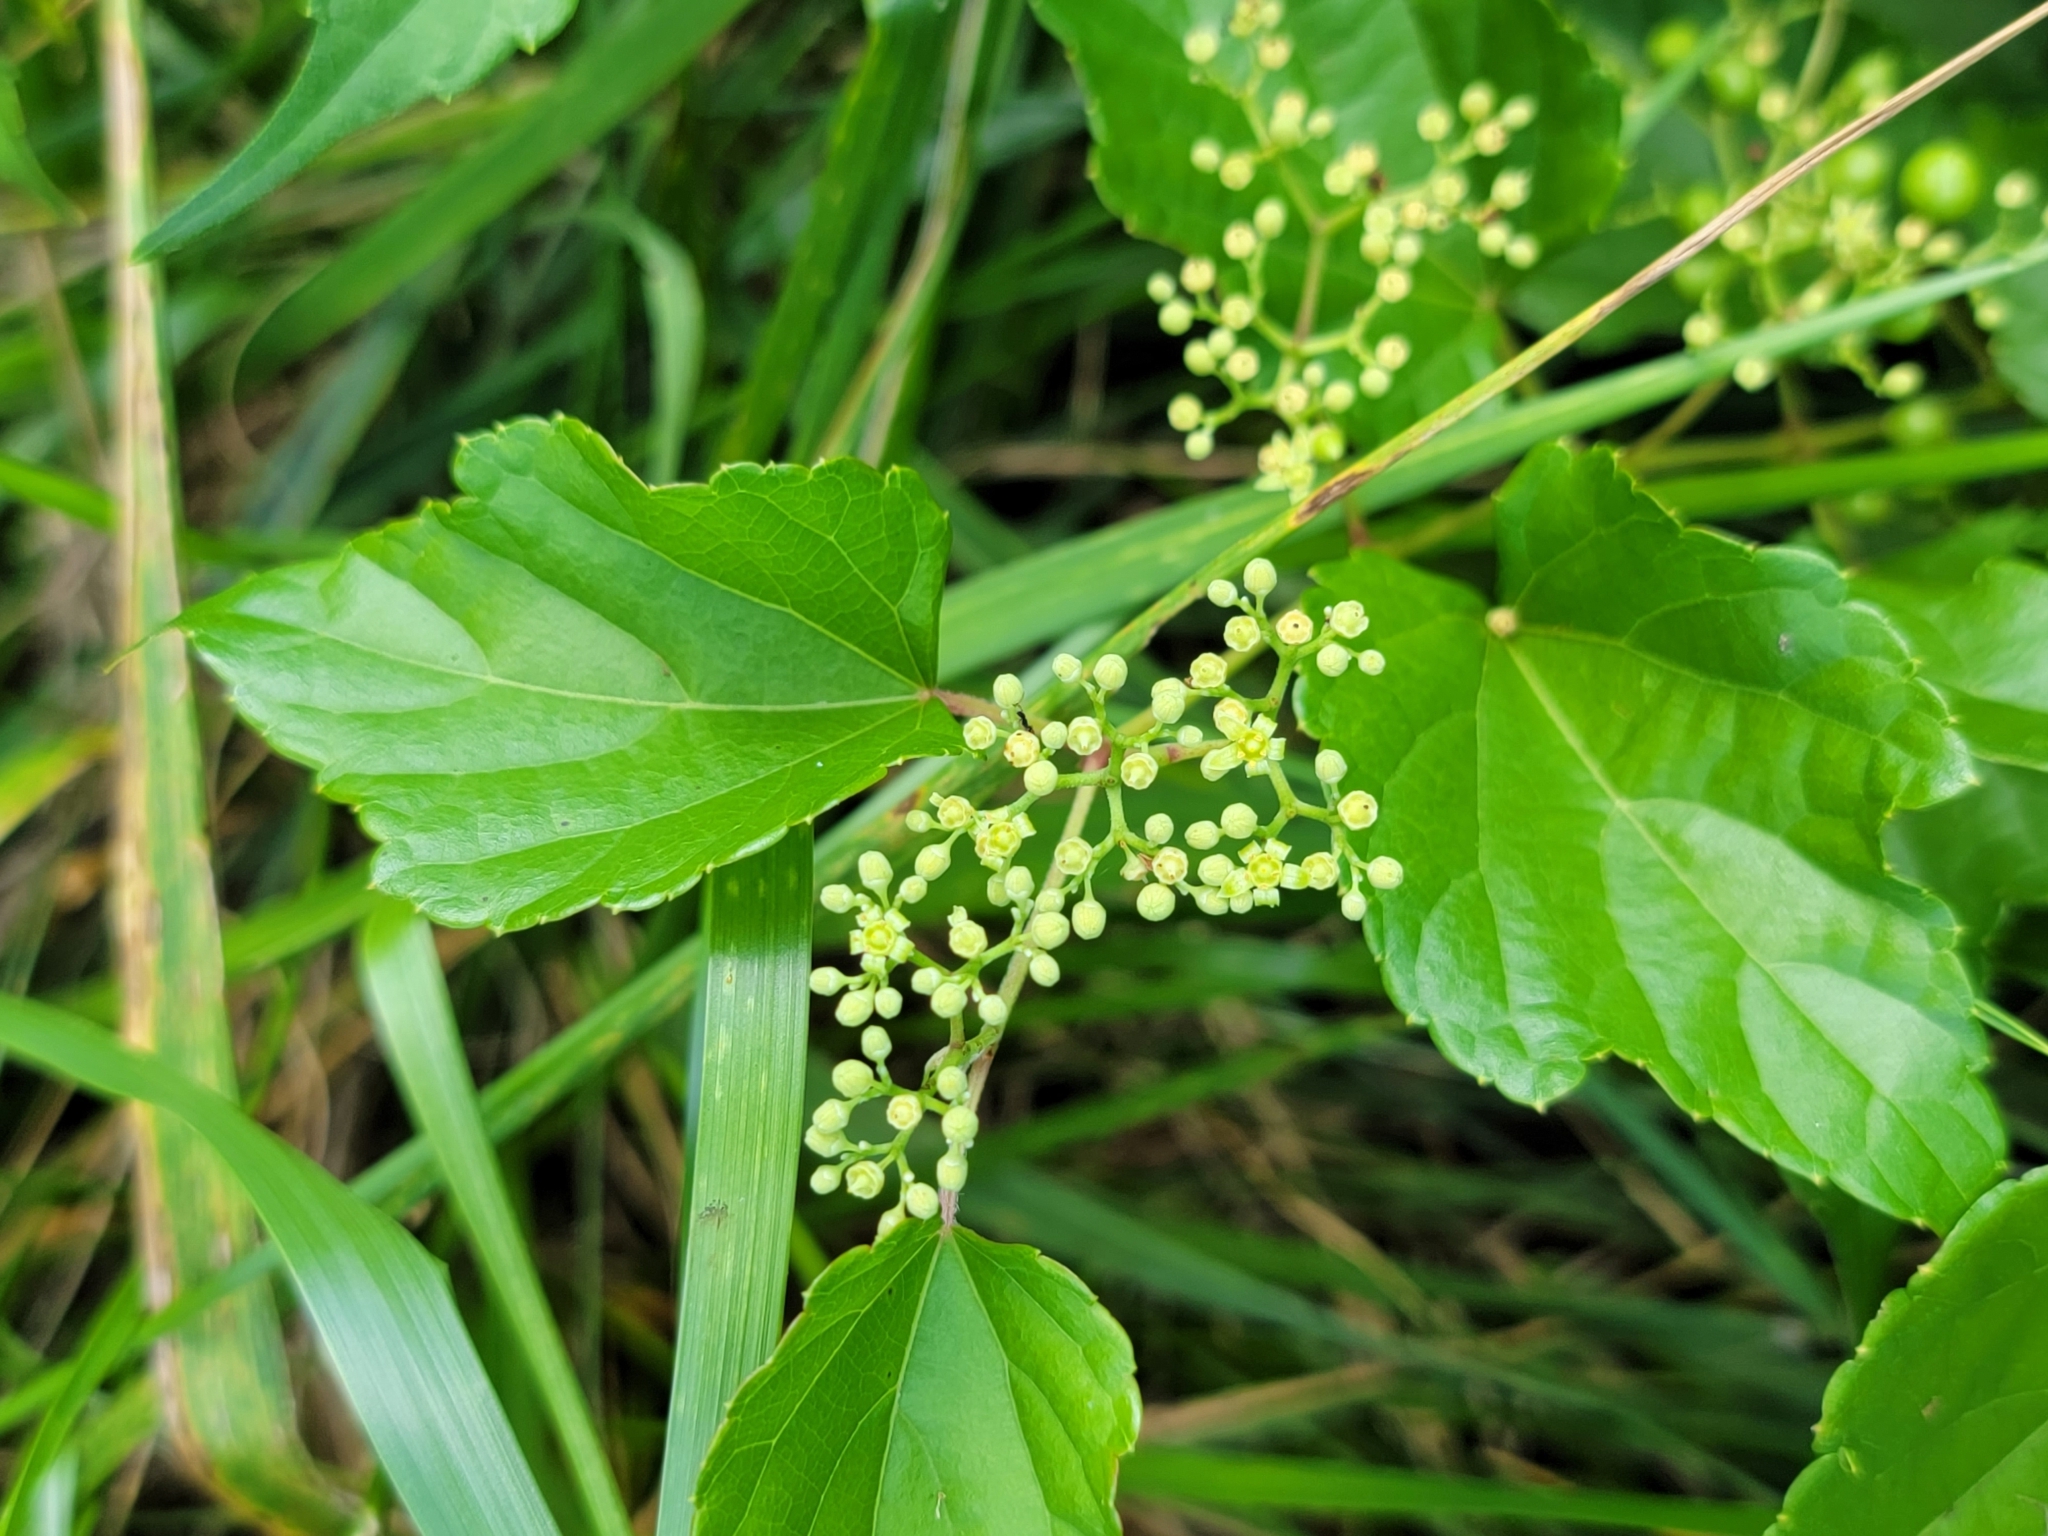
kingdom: Plantae
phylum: Tracheophyta
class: Magnoliopsida
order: Vitales
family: Vitaceae
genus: Ampelopsis
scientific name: Ampelopsis glandulosa
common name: Amur peppervine
